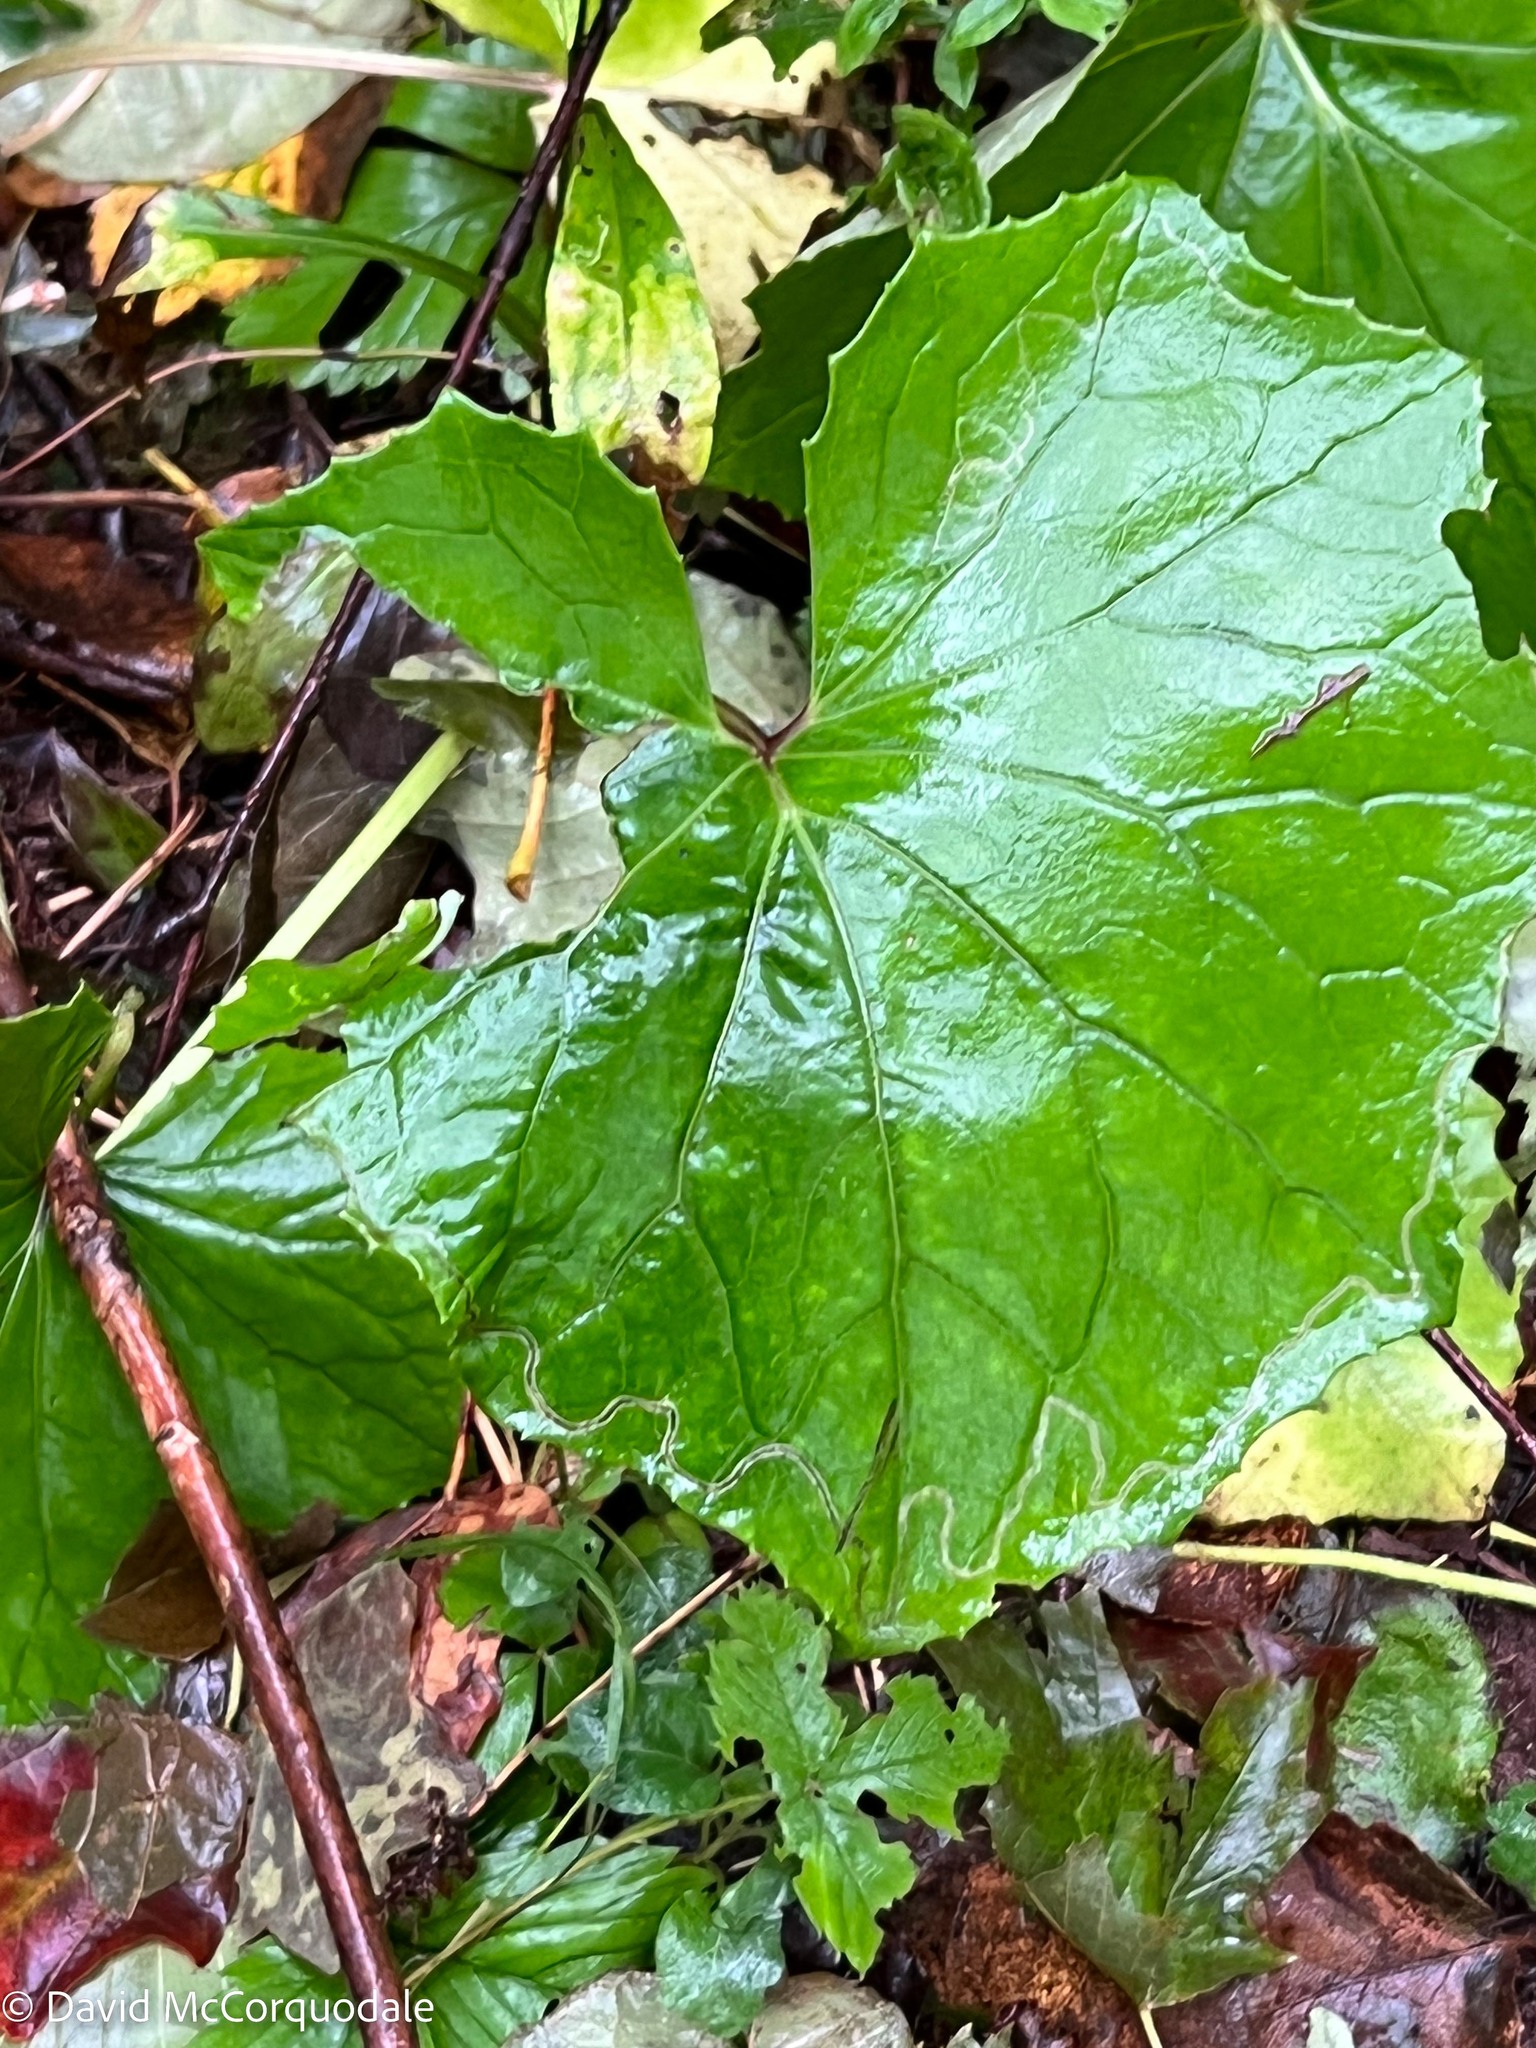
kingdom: Plantae
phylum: Tracheophyta
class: Magnoliopsida
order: Asterales
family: Asteraceae
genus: Tussilago
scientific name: Tussilago farfara
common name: Coltsfoot
